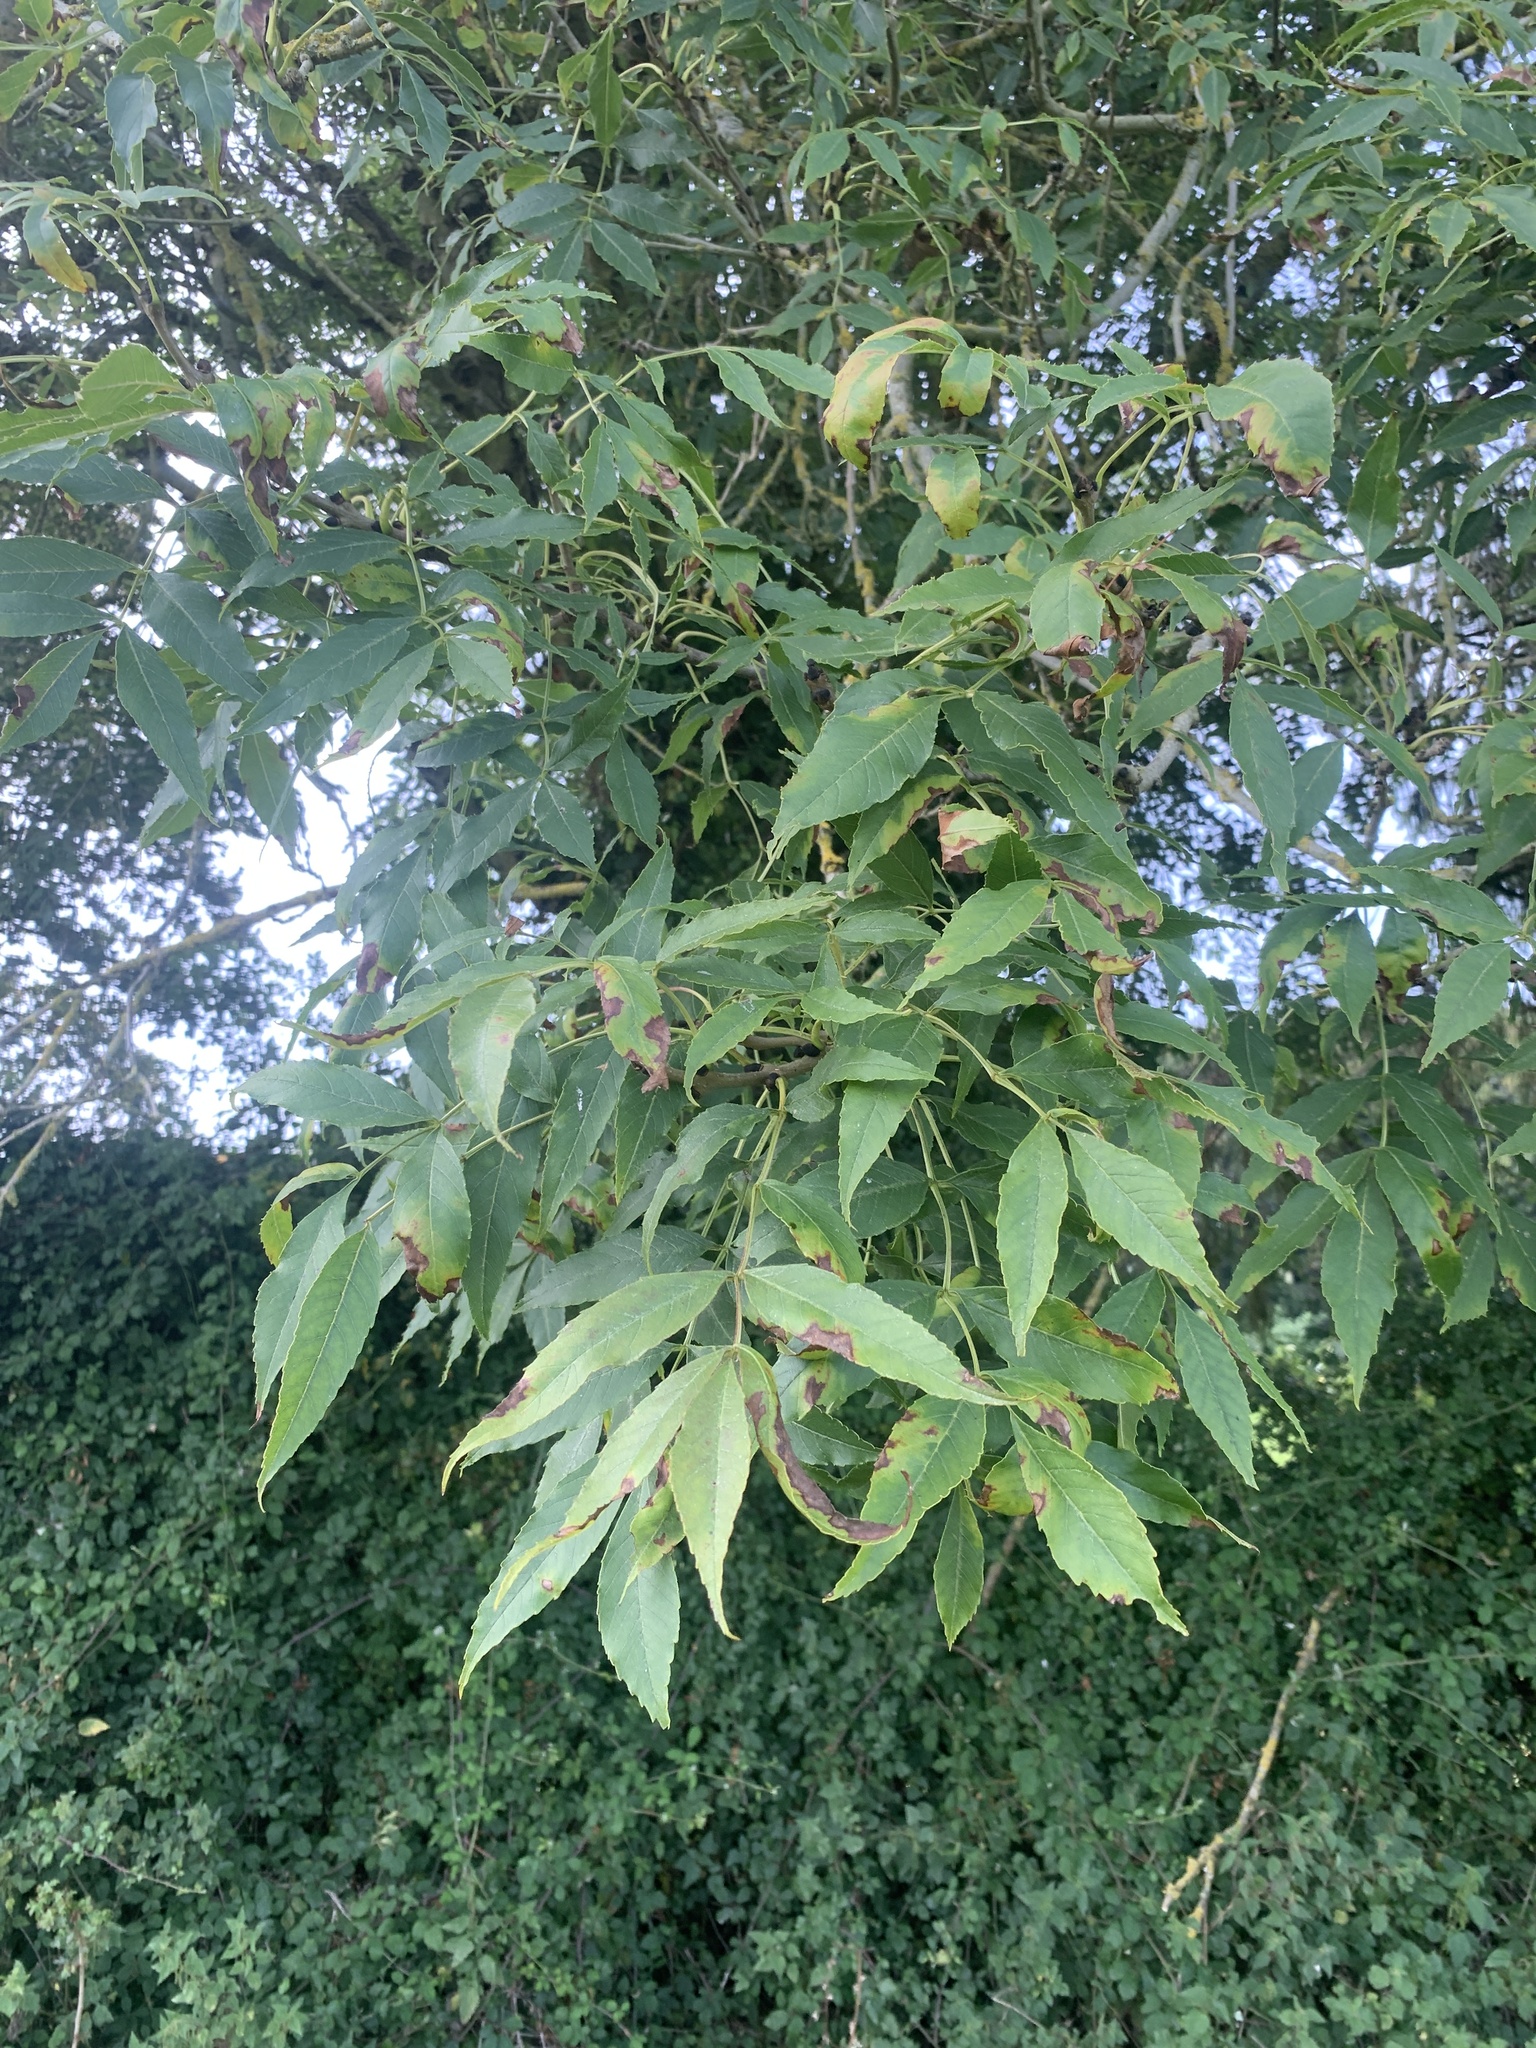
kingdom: Plantae
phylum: Tracheophyta
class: Magnoliopsida
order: Lamiales
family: Oleaceae
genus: Fraxinus
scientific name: Fraxinus excelsior
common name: European ash
